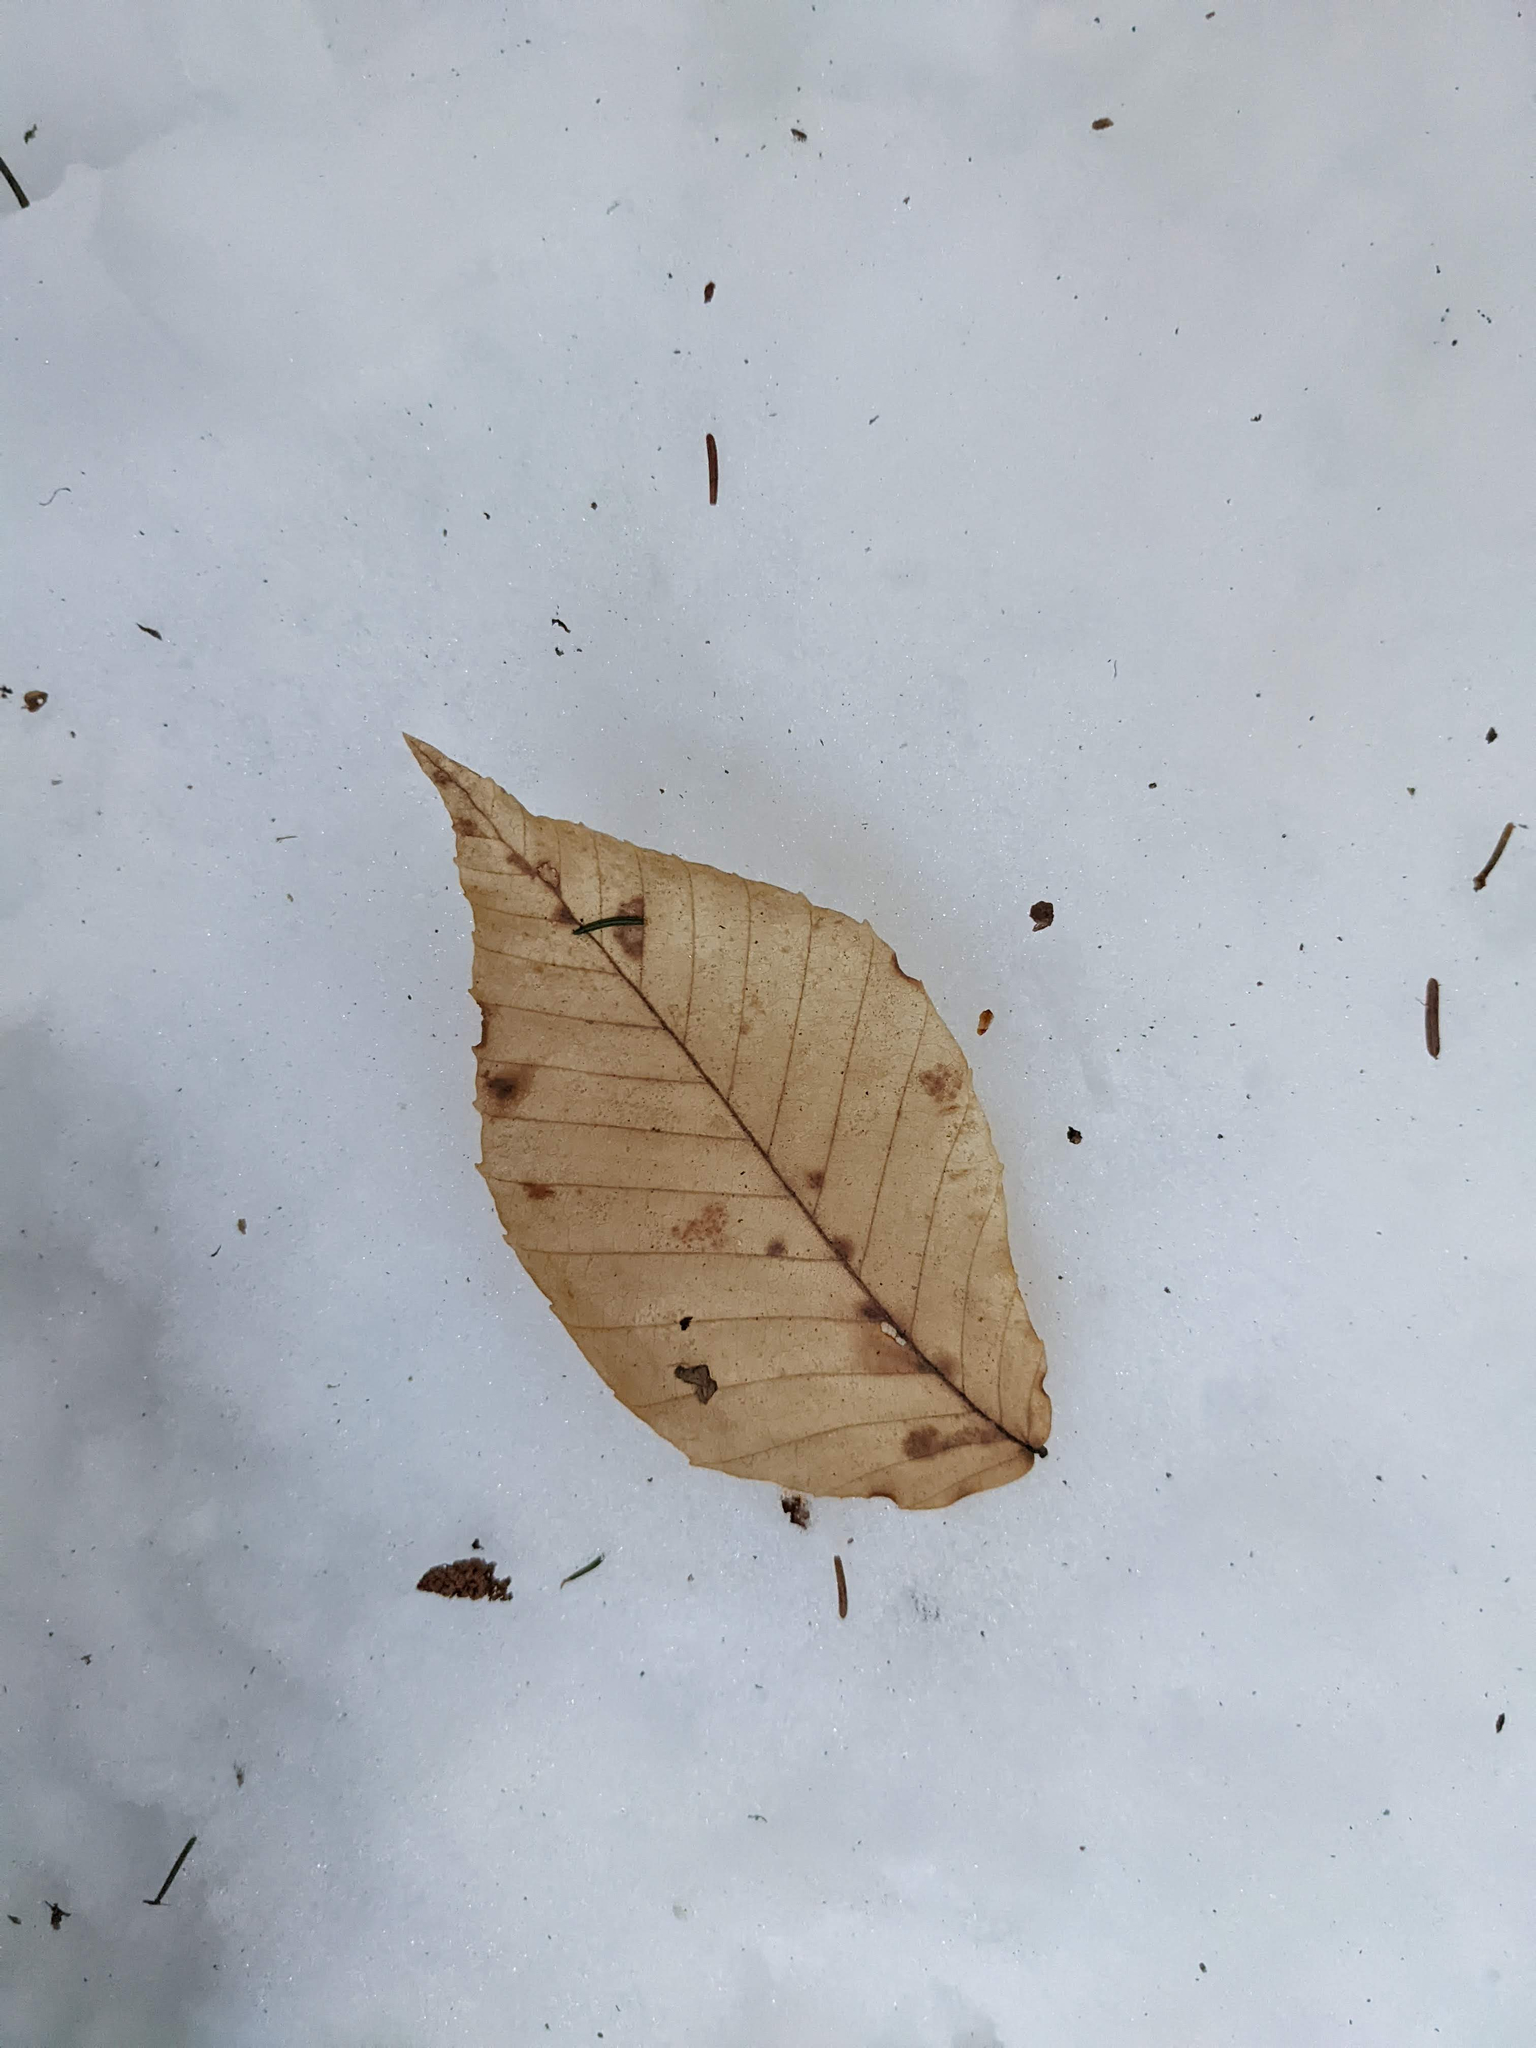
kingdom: Plantae
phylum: Tracheophyta
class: Magnoliopsida
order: Fagales
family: Fagaceae
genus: Fagus
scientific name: Fagus grandifolia
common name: American beech
